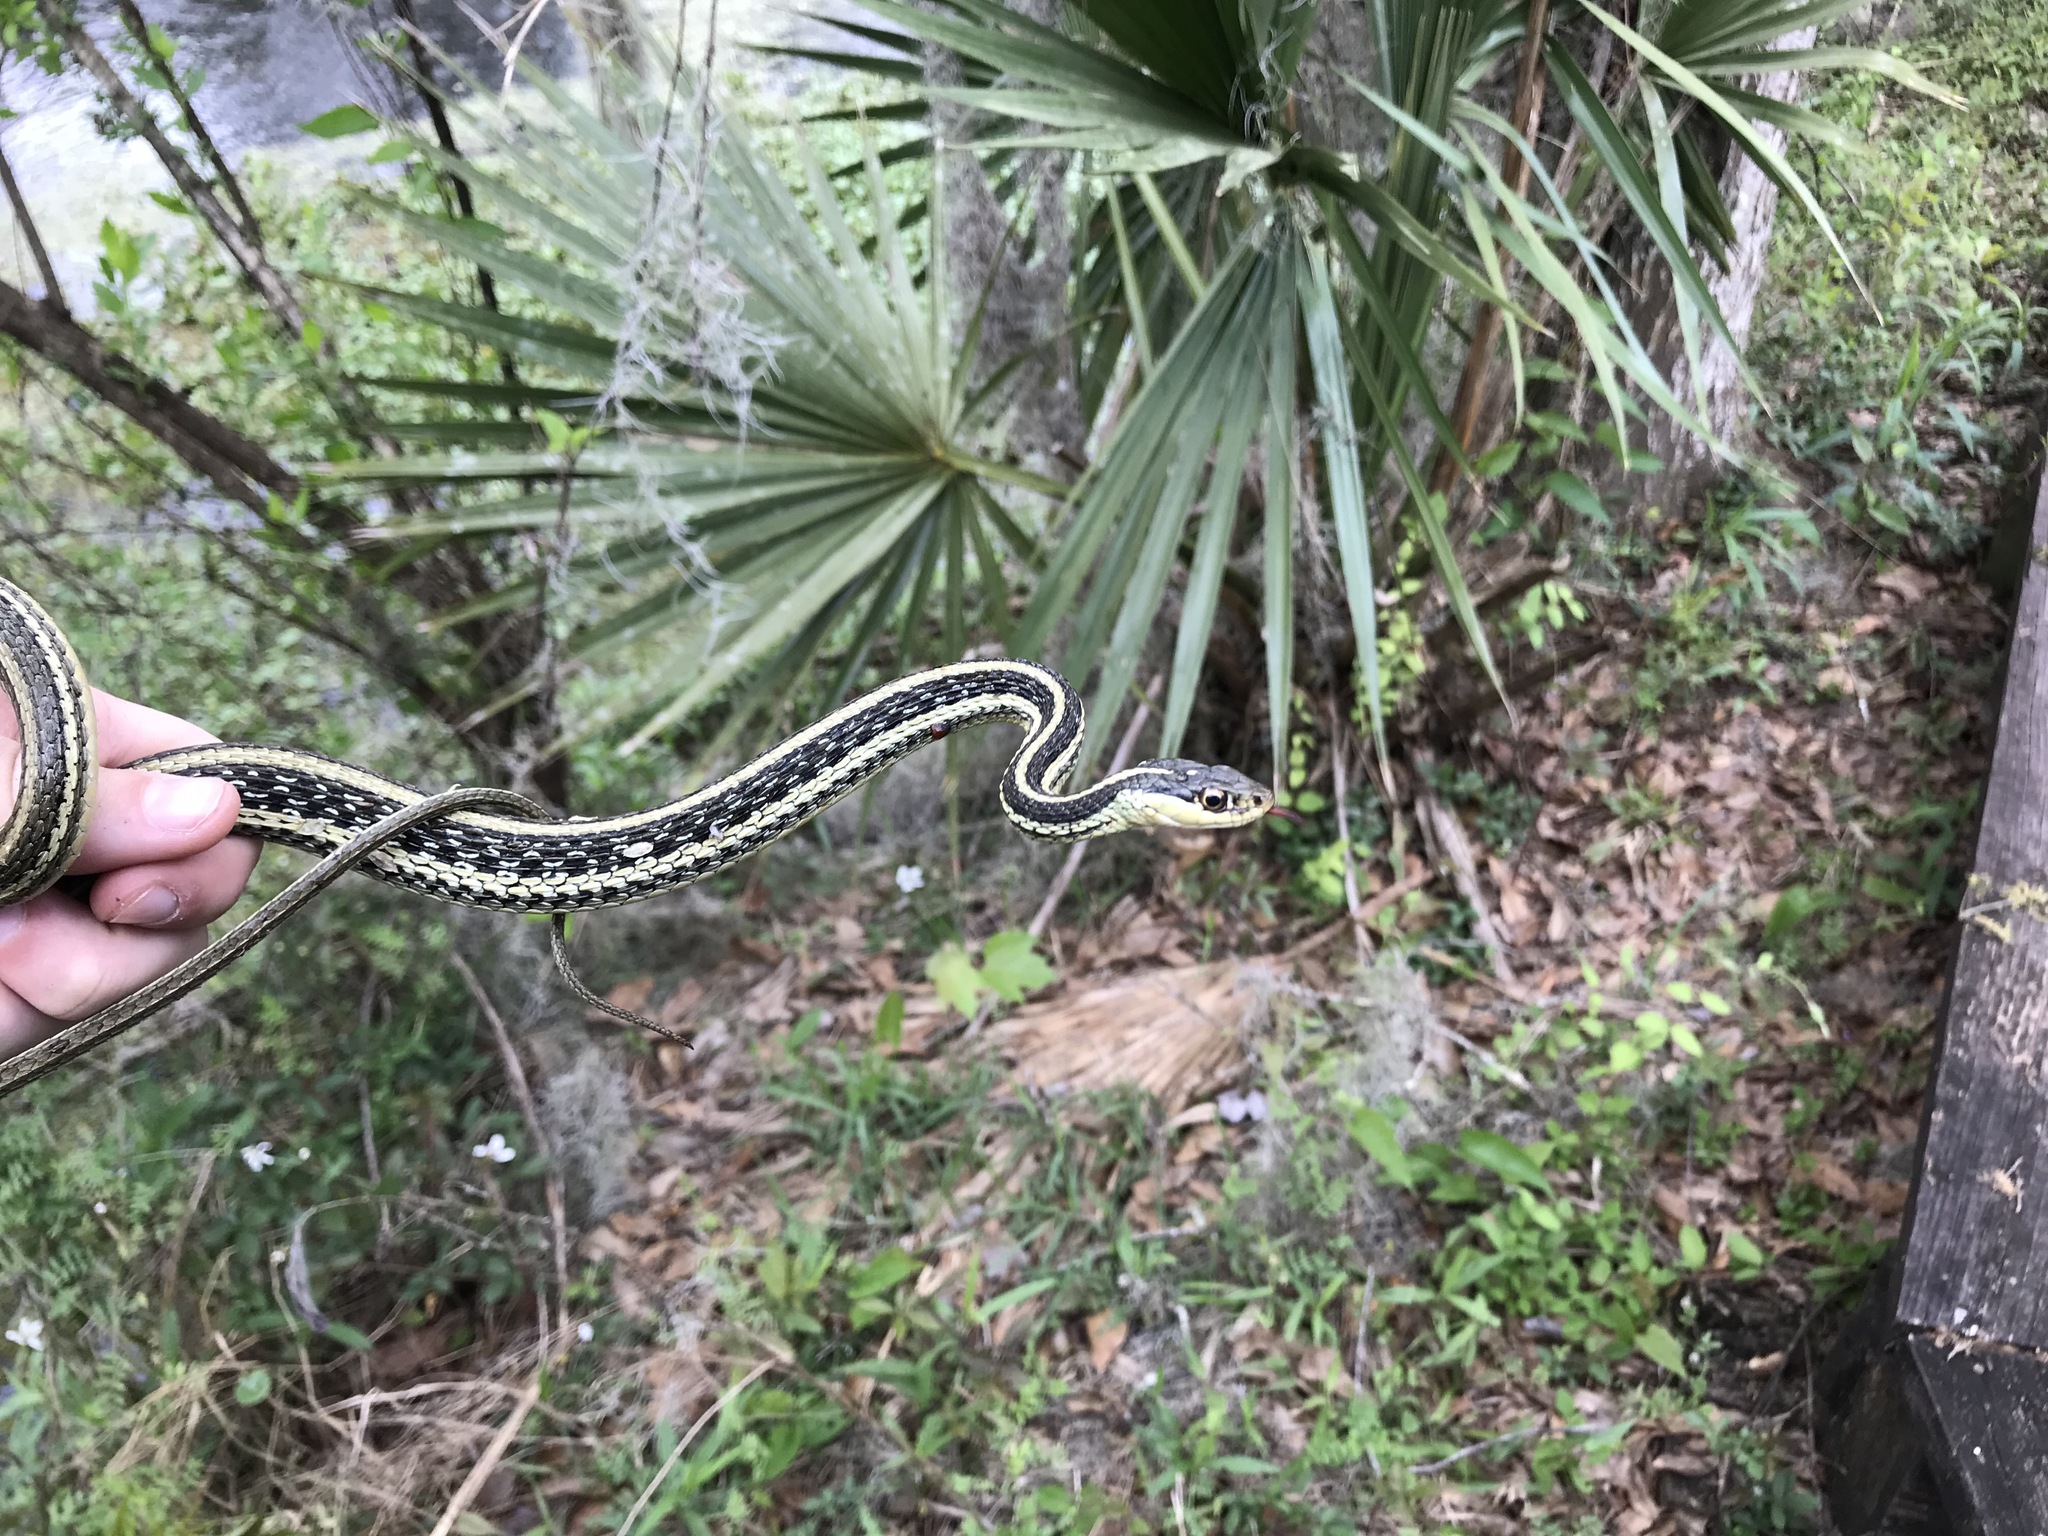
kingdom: Animalia
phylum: Chordata
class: Squamata
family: Colubridae
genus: Thamnophis
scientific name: Thamnophis proximus
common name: Western ribbon snake
